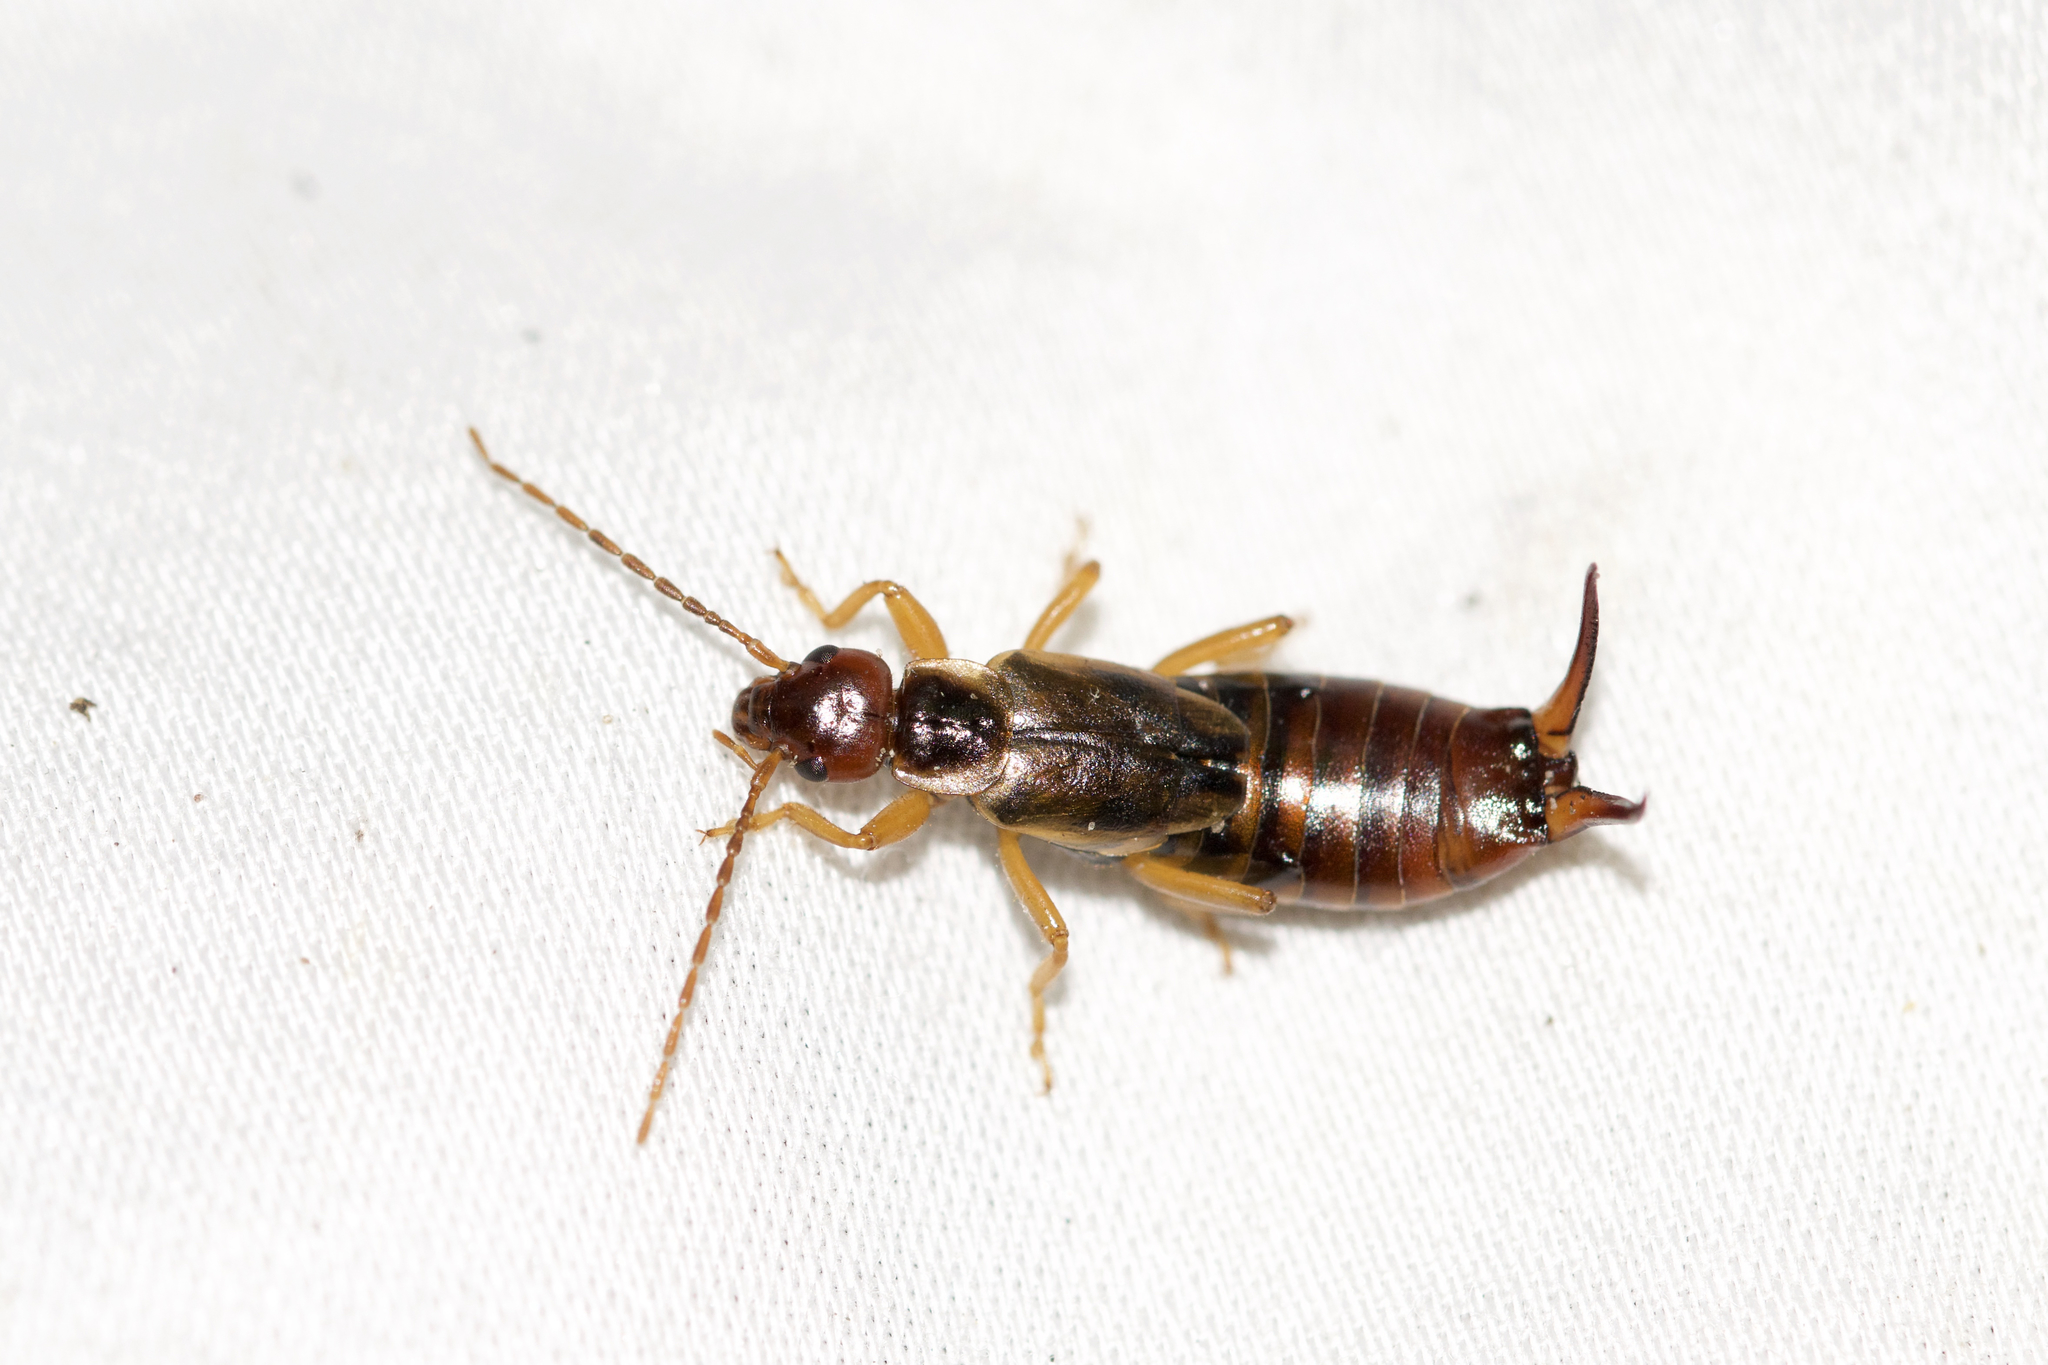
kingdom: Animalia
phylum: Arthropoda
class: Insecta
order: Dermaptera
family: Forficulidae
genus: Forficula
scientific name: Forficula
